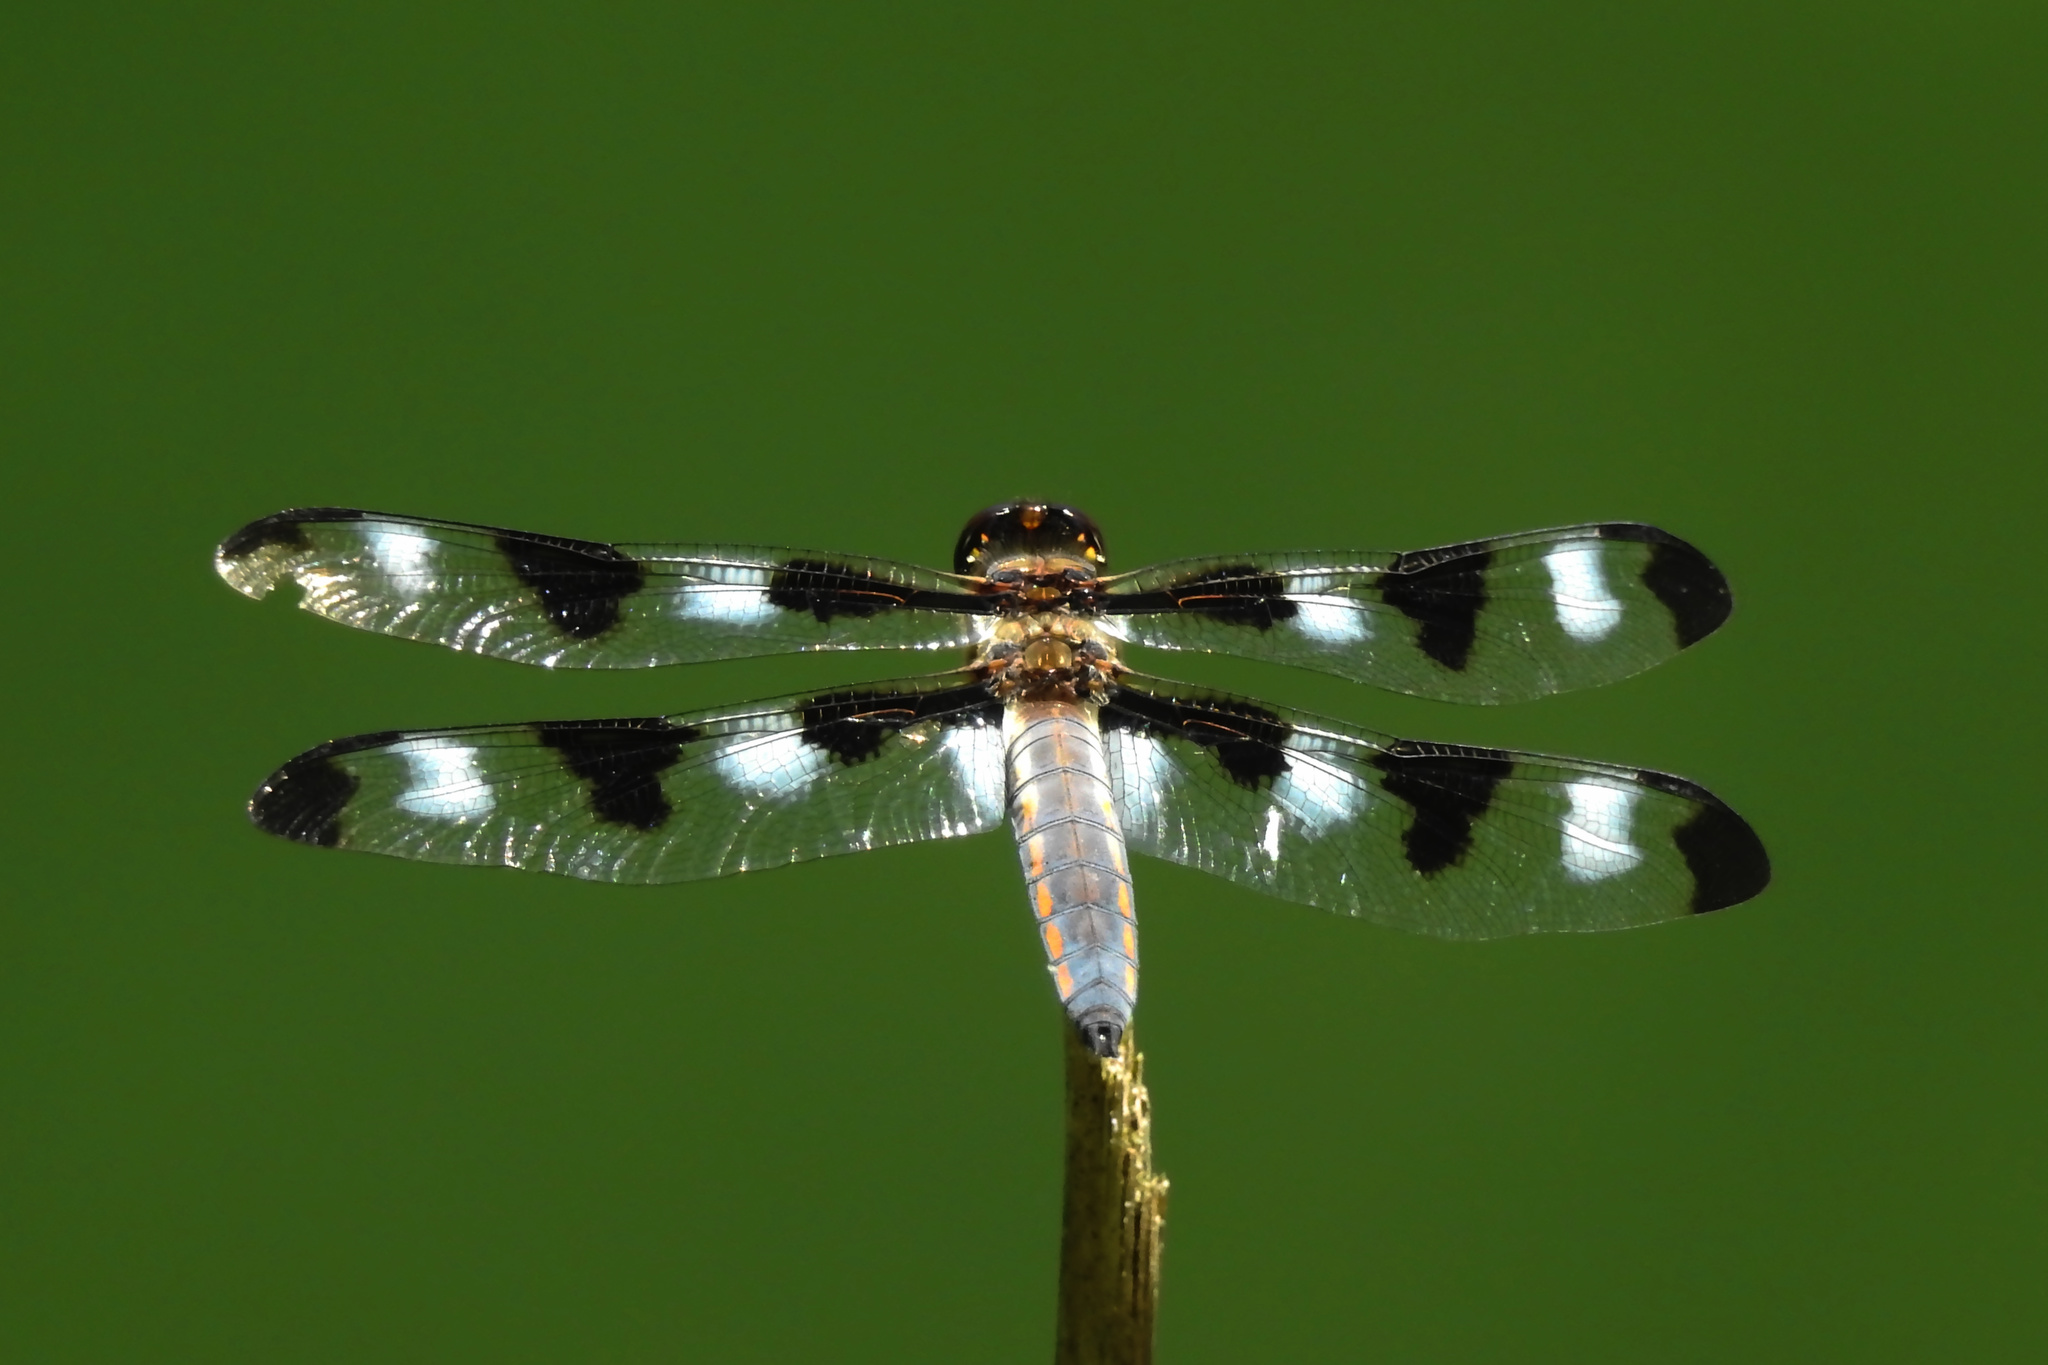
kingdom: Animalia
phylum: Arthropoda
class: Insecta
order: Odonata
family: Libellulidae
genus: Libellula
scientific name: Libellula pulchella
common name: Twelve-spotted skimmer
